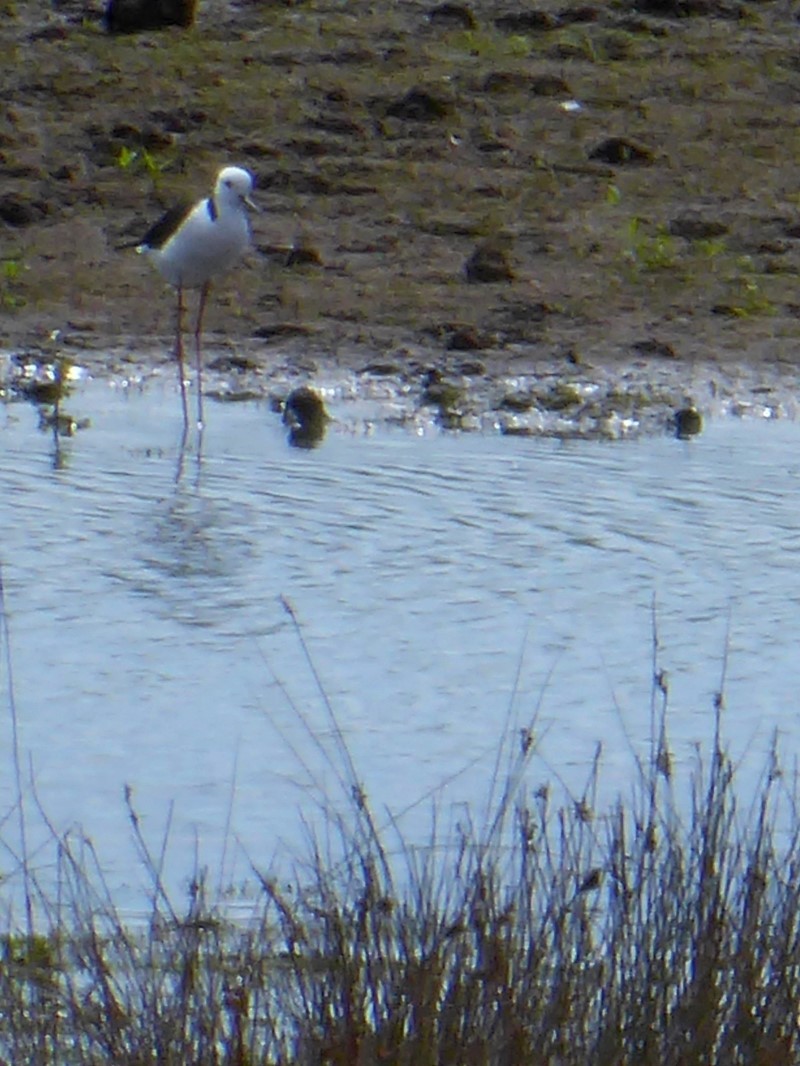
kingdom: Animalia
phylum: Chordata
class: Aves
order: Charadriiformes
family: Recurvirostridae
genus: Himantopus
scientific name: Himantopus leucocephalus
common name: White-headed stilt
